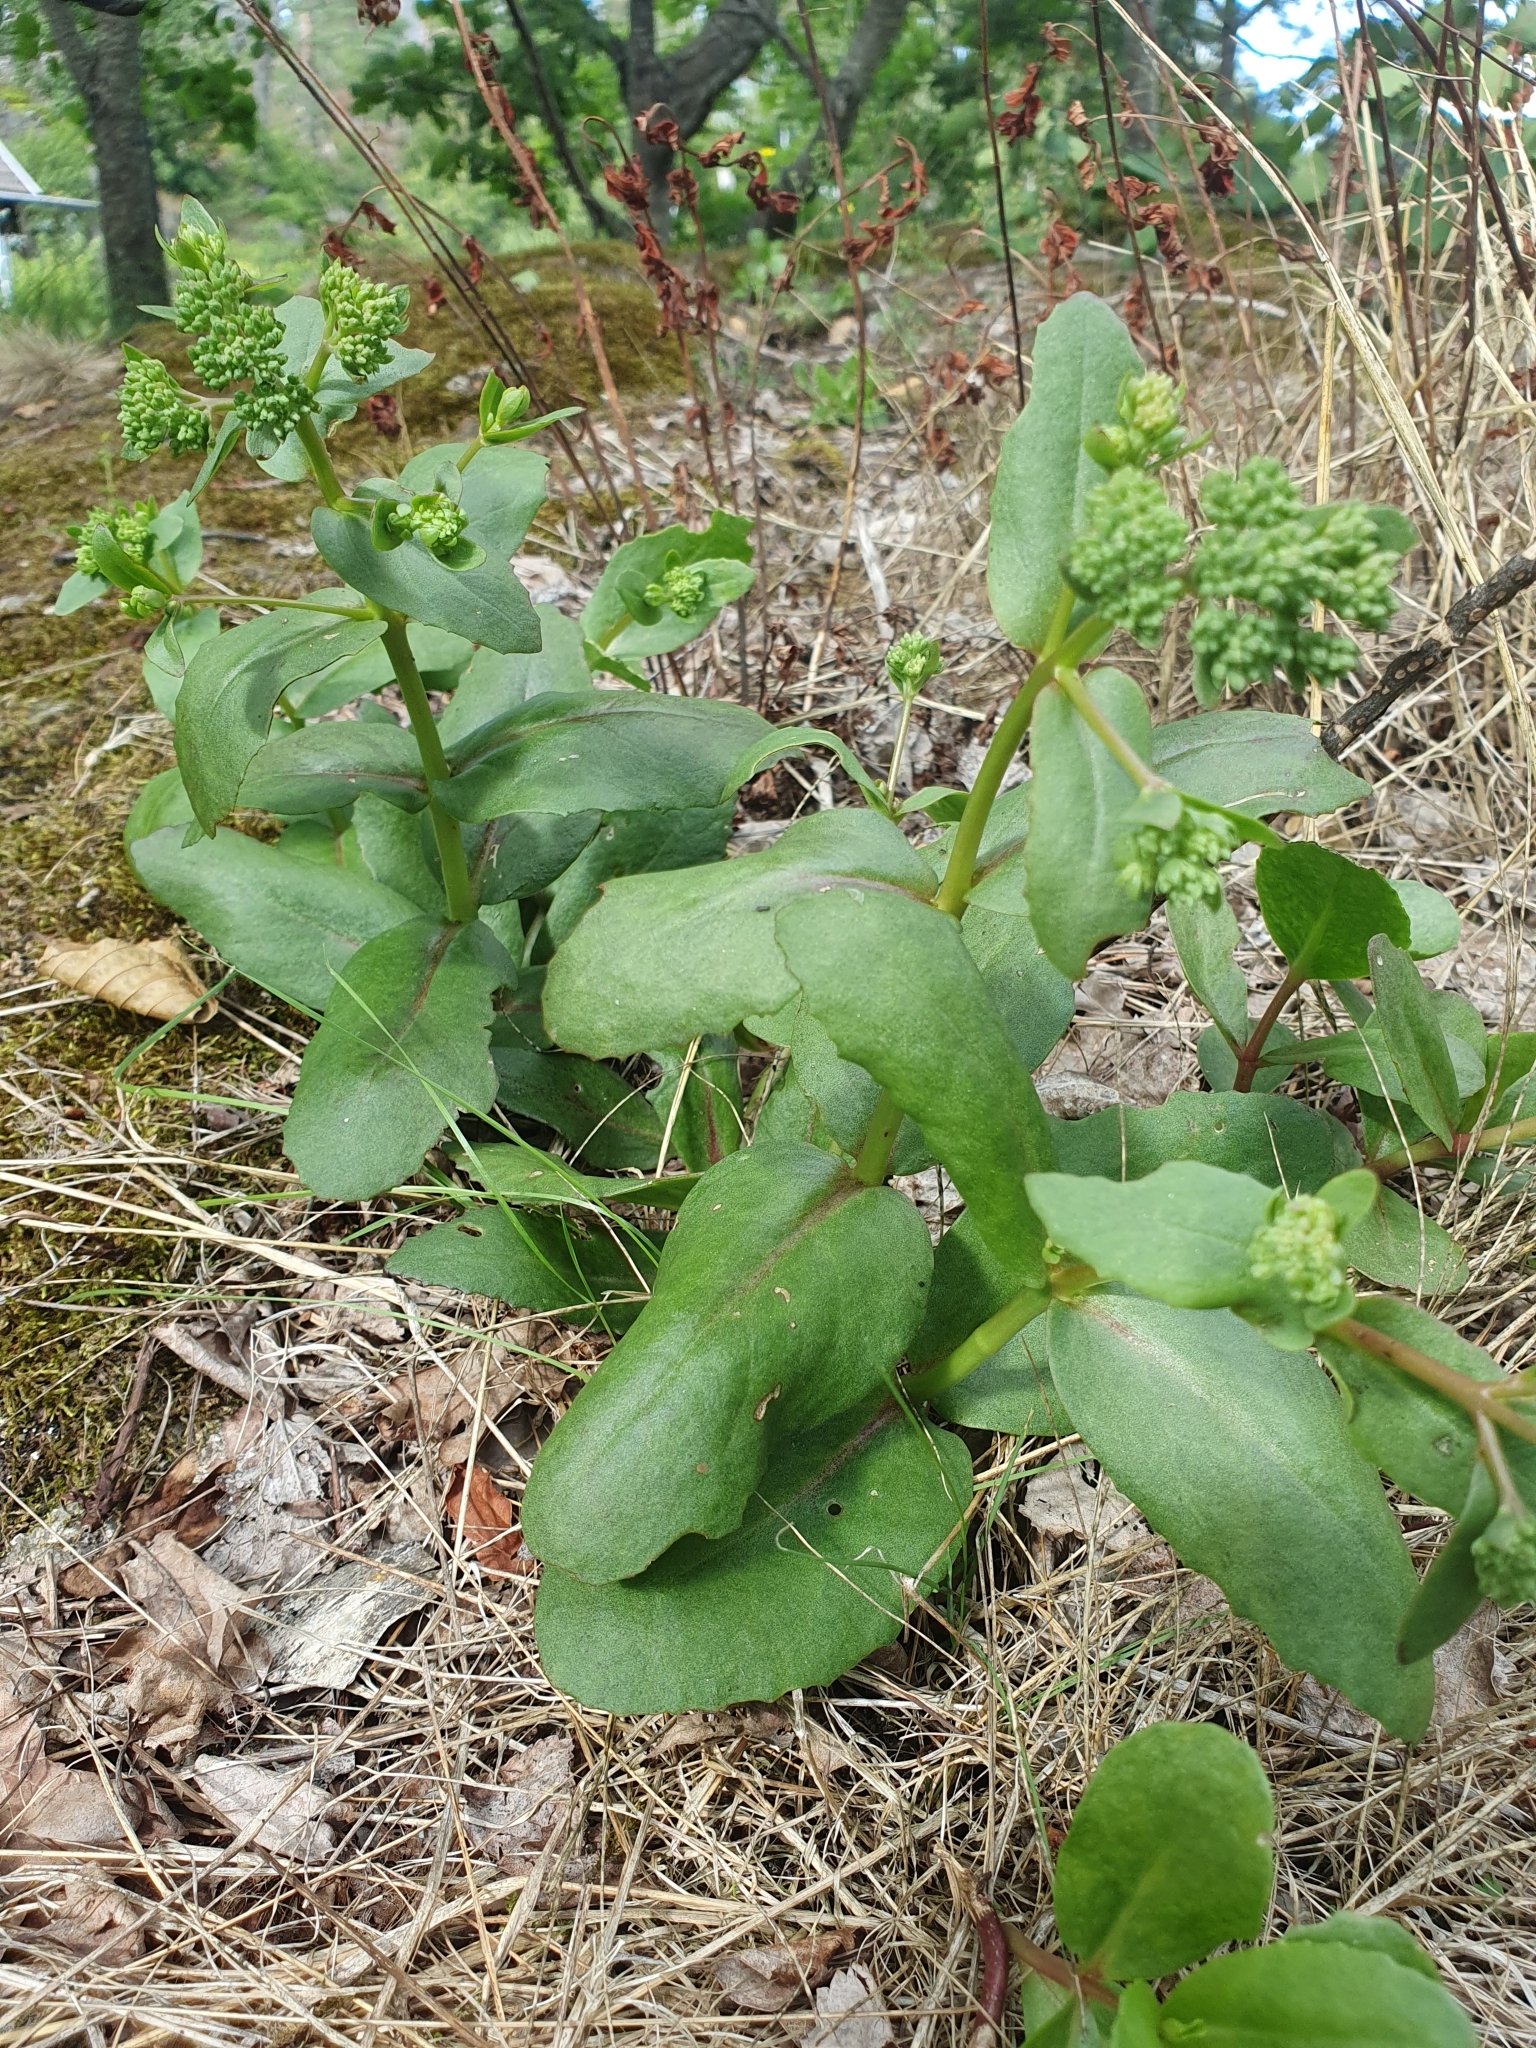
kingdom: Plantae
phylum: Tracheophyta
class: Magnoliopsida
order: Saxifragales
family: Crassulaceae
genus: Hylotelephium
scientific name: Hylotelephium maximum
